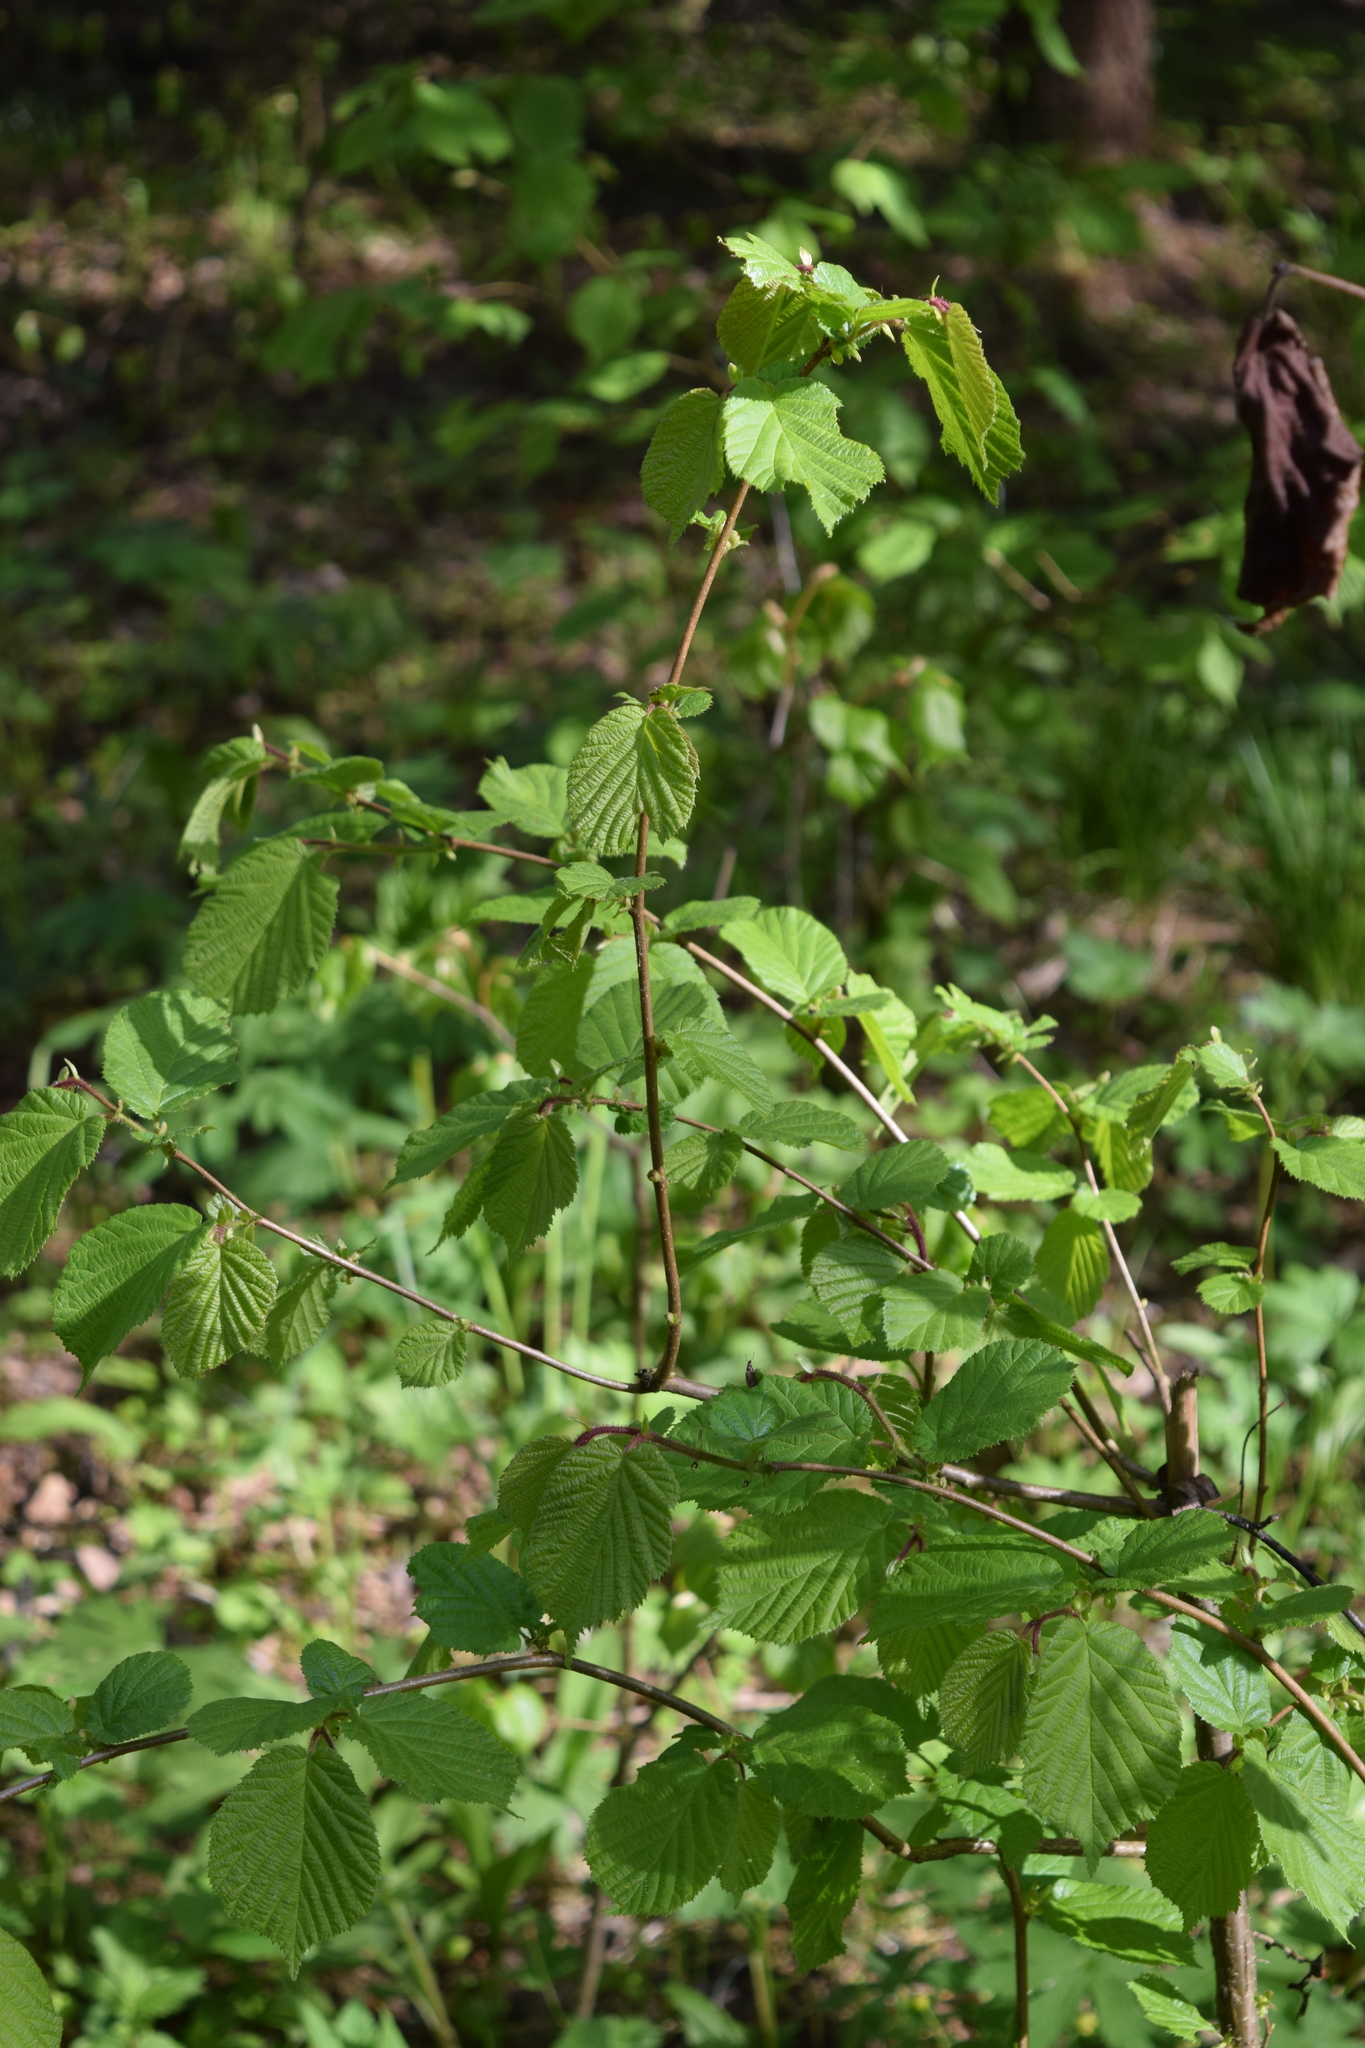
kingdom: Plantae
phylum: Tracheophyta
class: Magnoliopsida
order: Fagales
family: Betulaceae
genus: Corylus
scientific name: Corylus avellana
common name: European hazel
